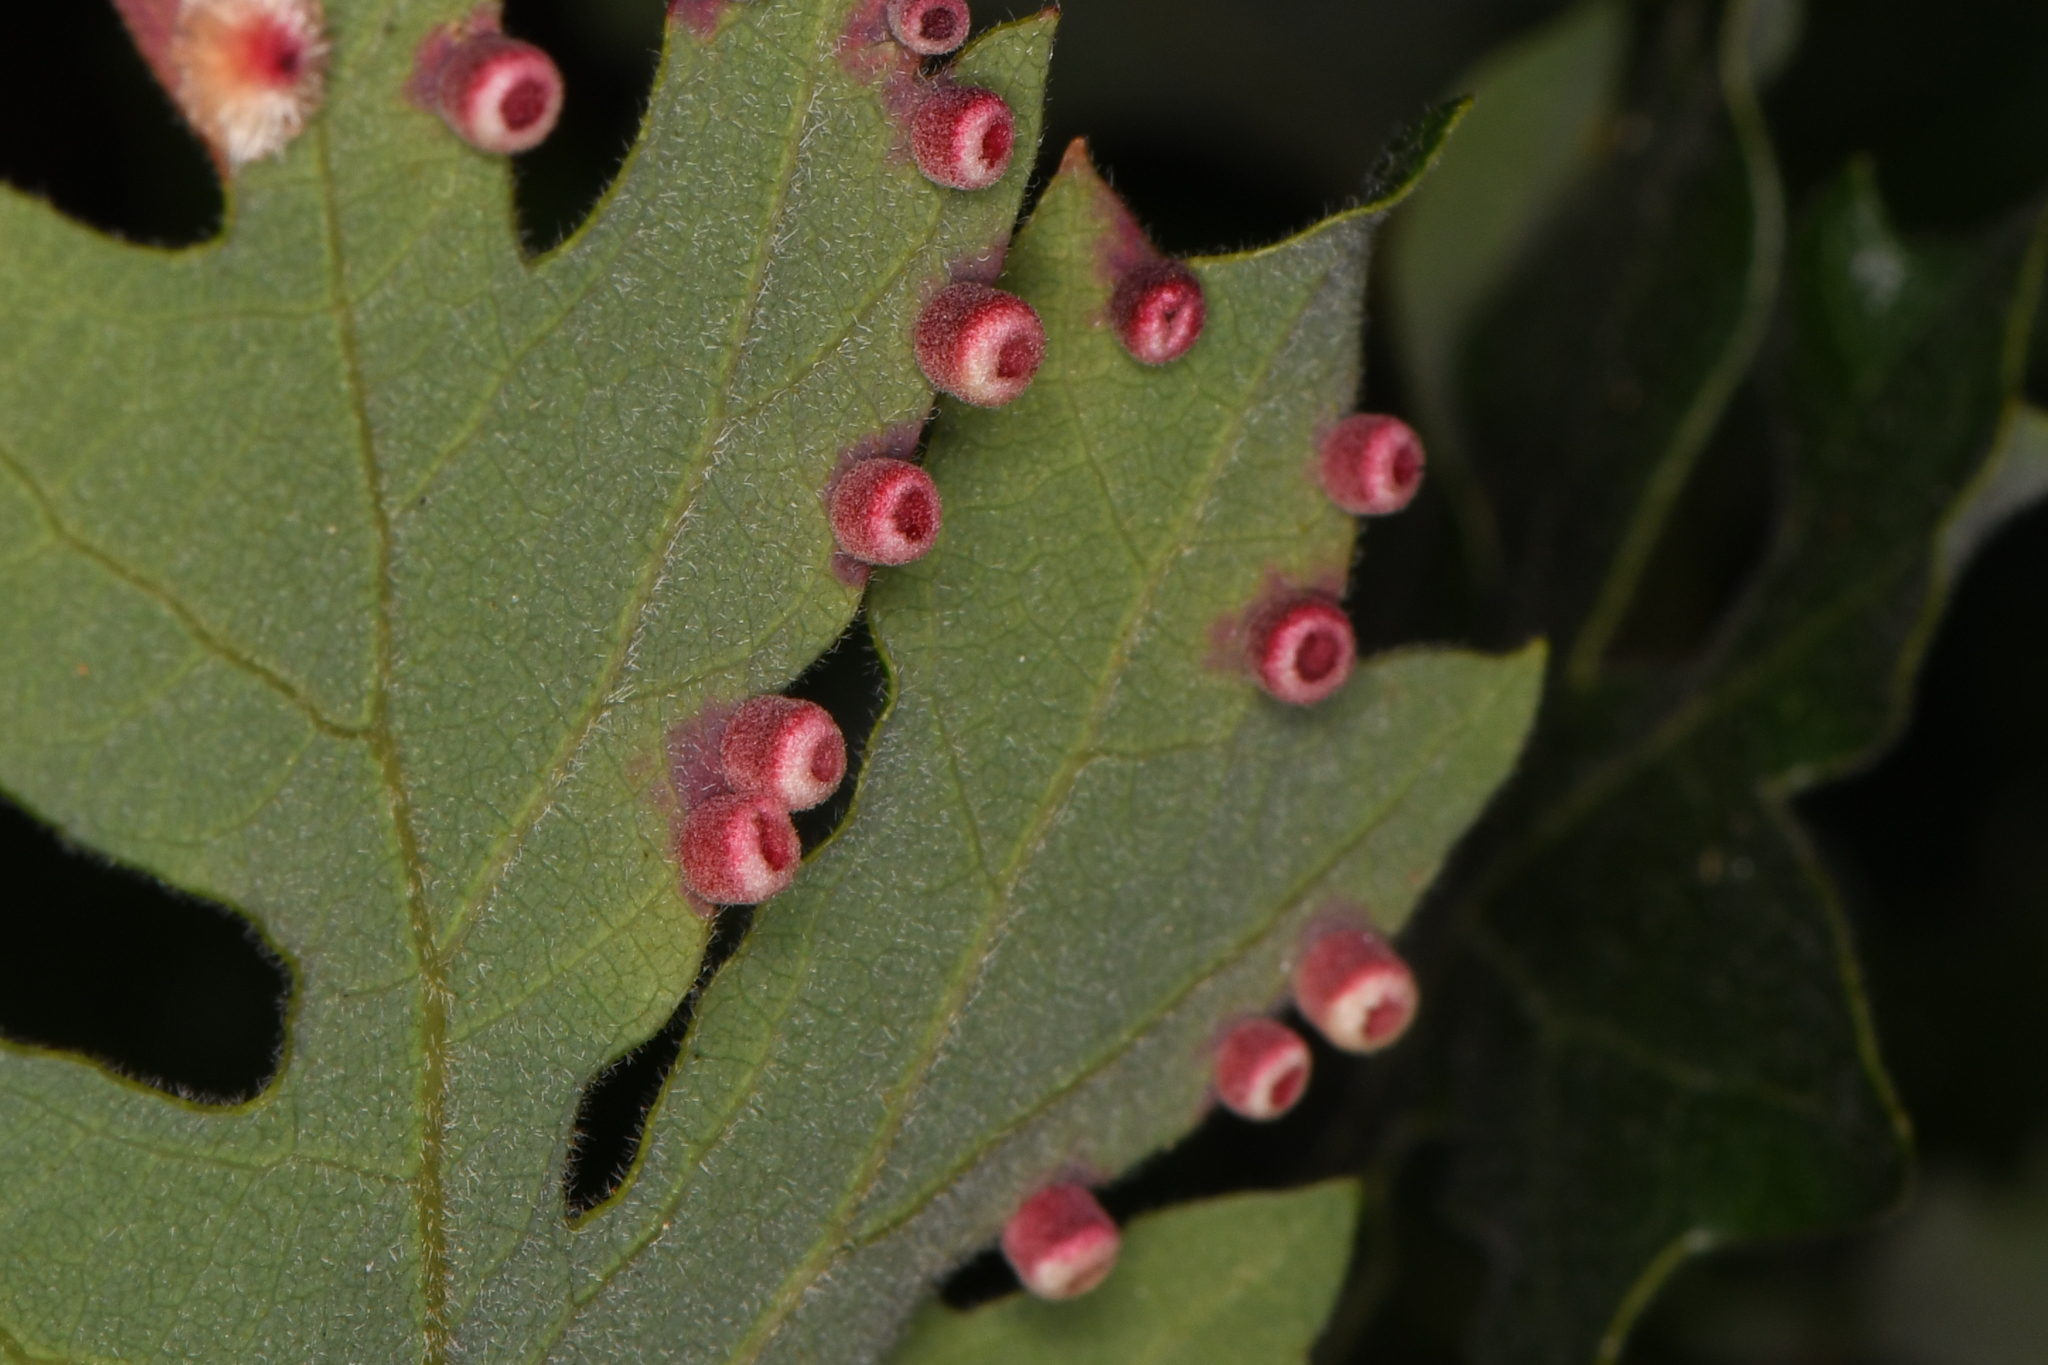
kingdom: Animalia
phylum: Arthropoda
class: Insecta
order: Hymenoptera
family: Cynipidae
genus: Phylloteras
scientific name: Phylloteras
